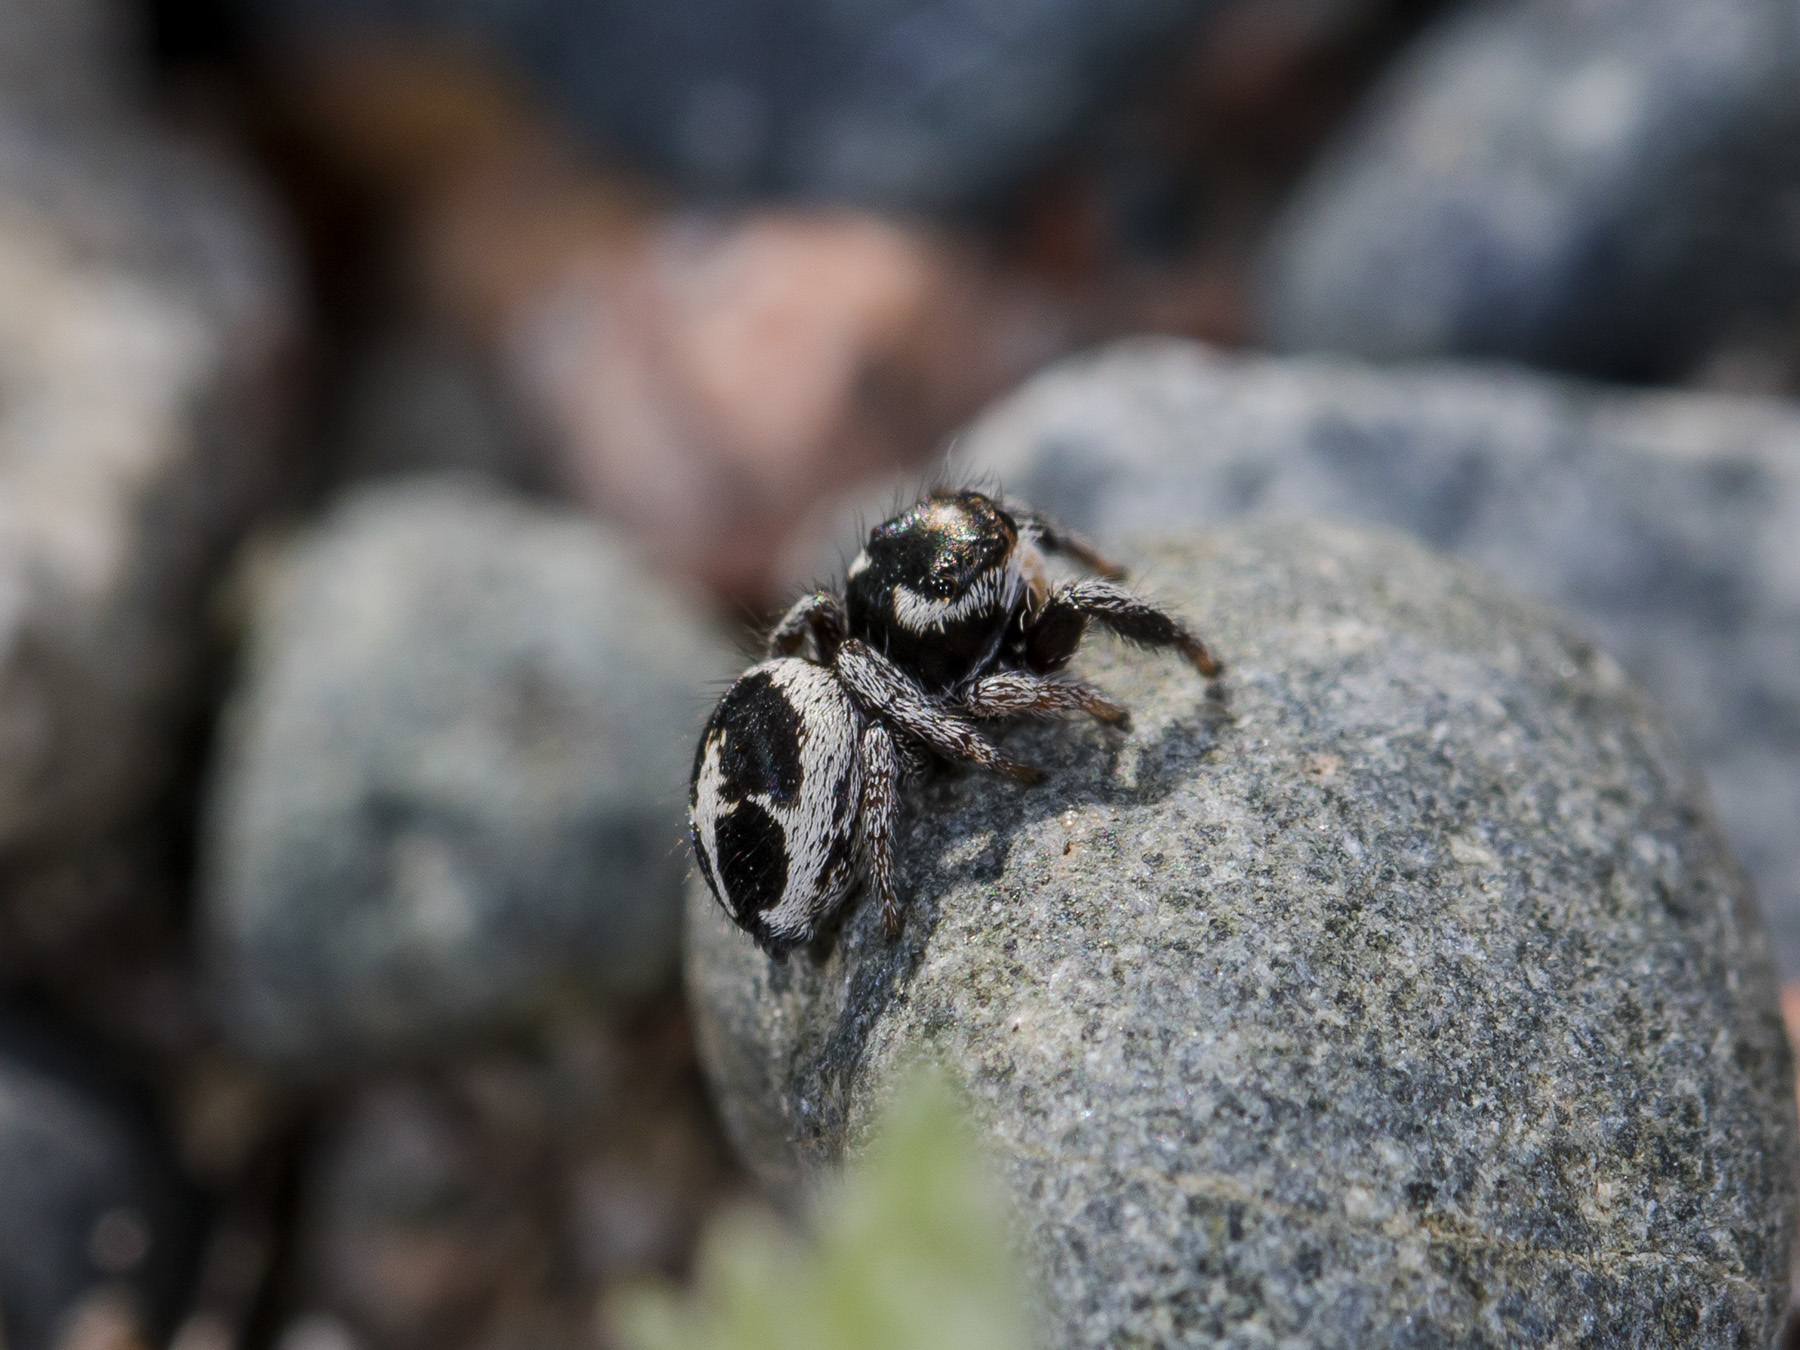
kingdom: Animalia
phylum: Arthropoda
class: Arachnida
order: Araneae
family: Salticidae
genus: Pellenes
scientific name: Pellenes geniculatus
